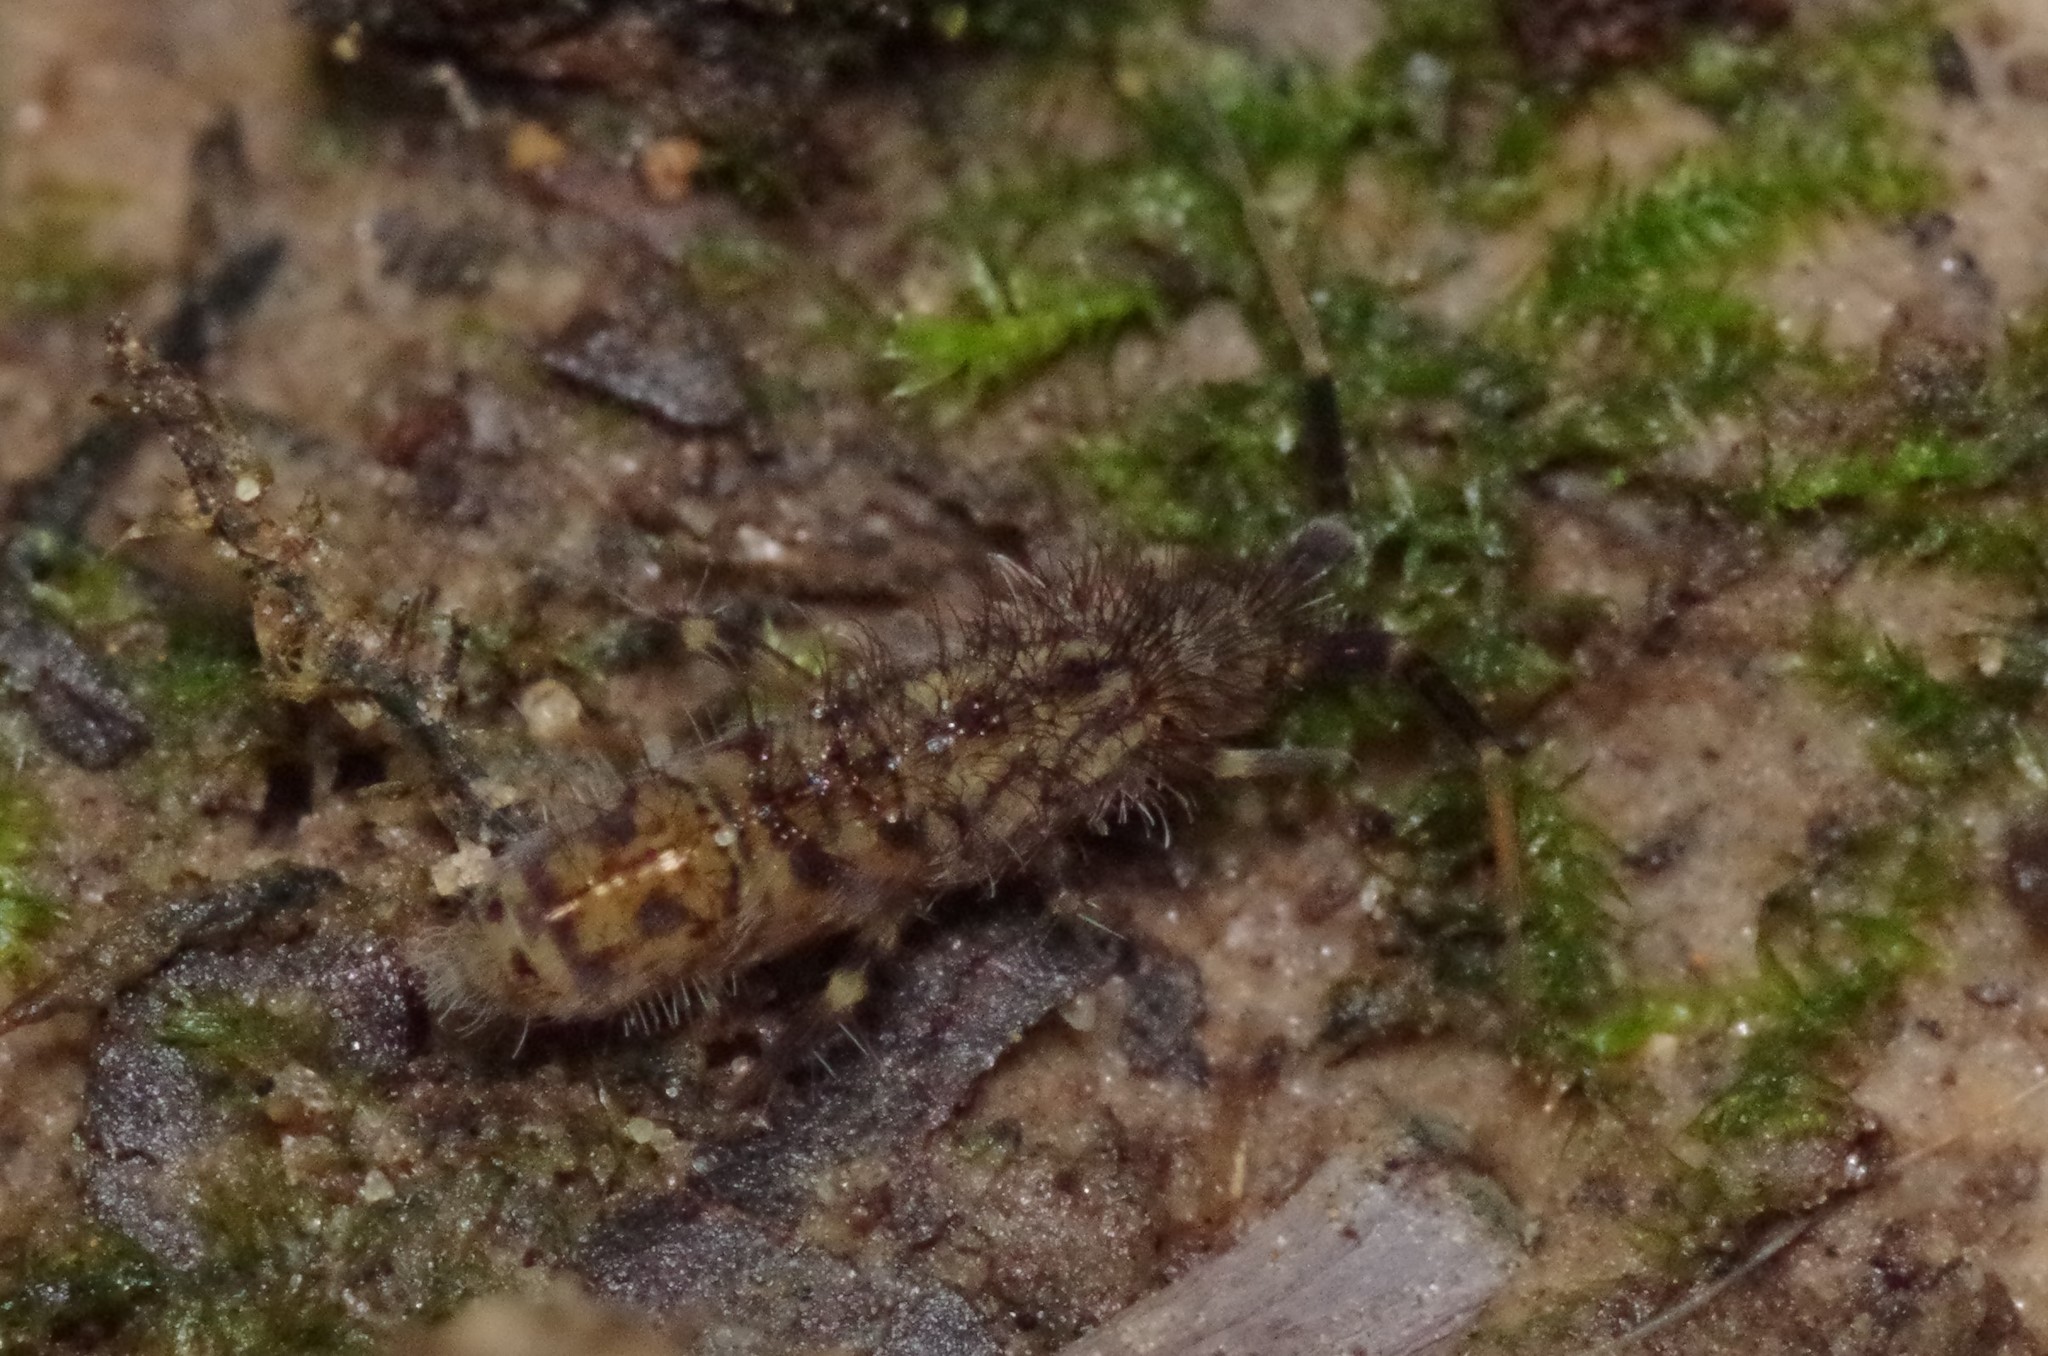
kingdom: Animalia
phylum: Arthropoda
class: Collembola
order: Entomobryomorpha
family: Orchesellidae
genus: Orchesella
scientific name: Orchesella villosa
